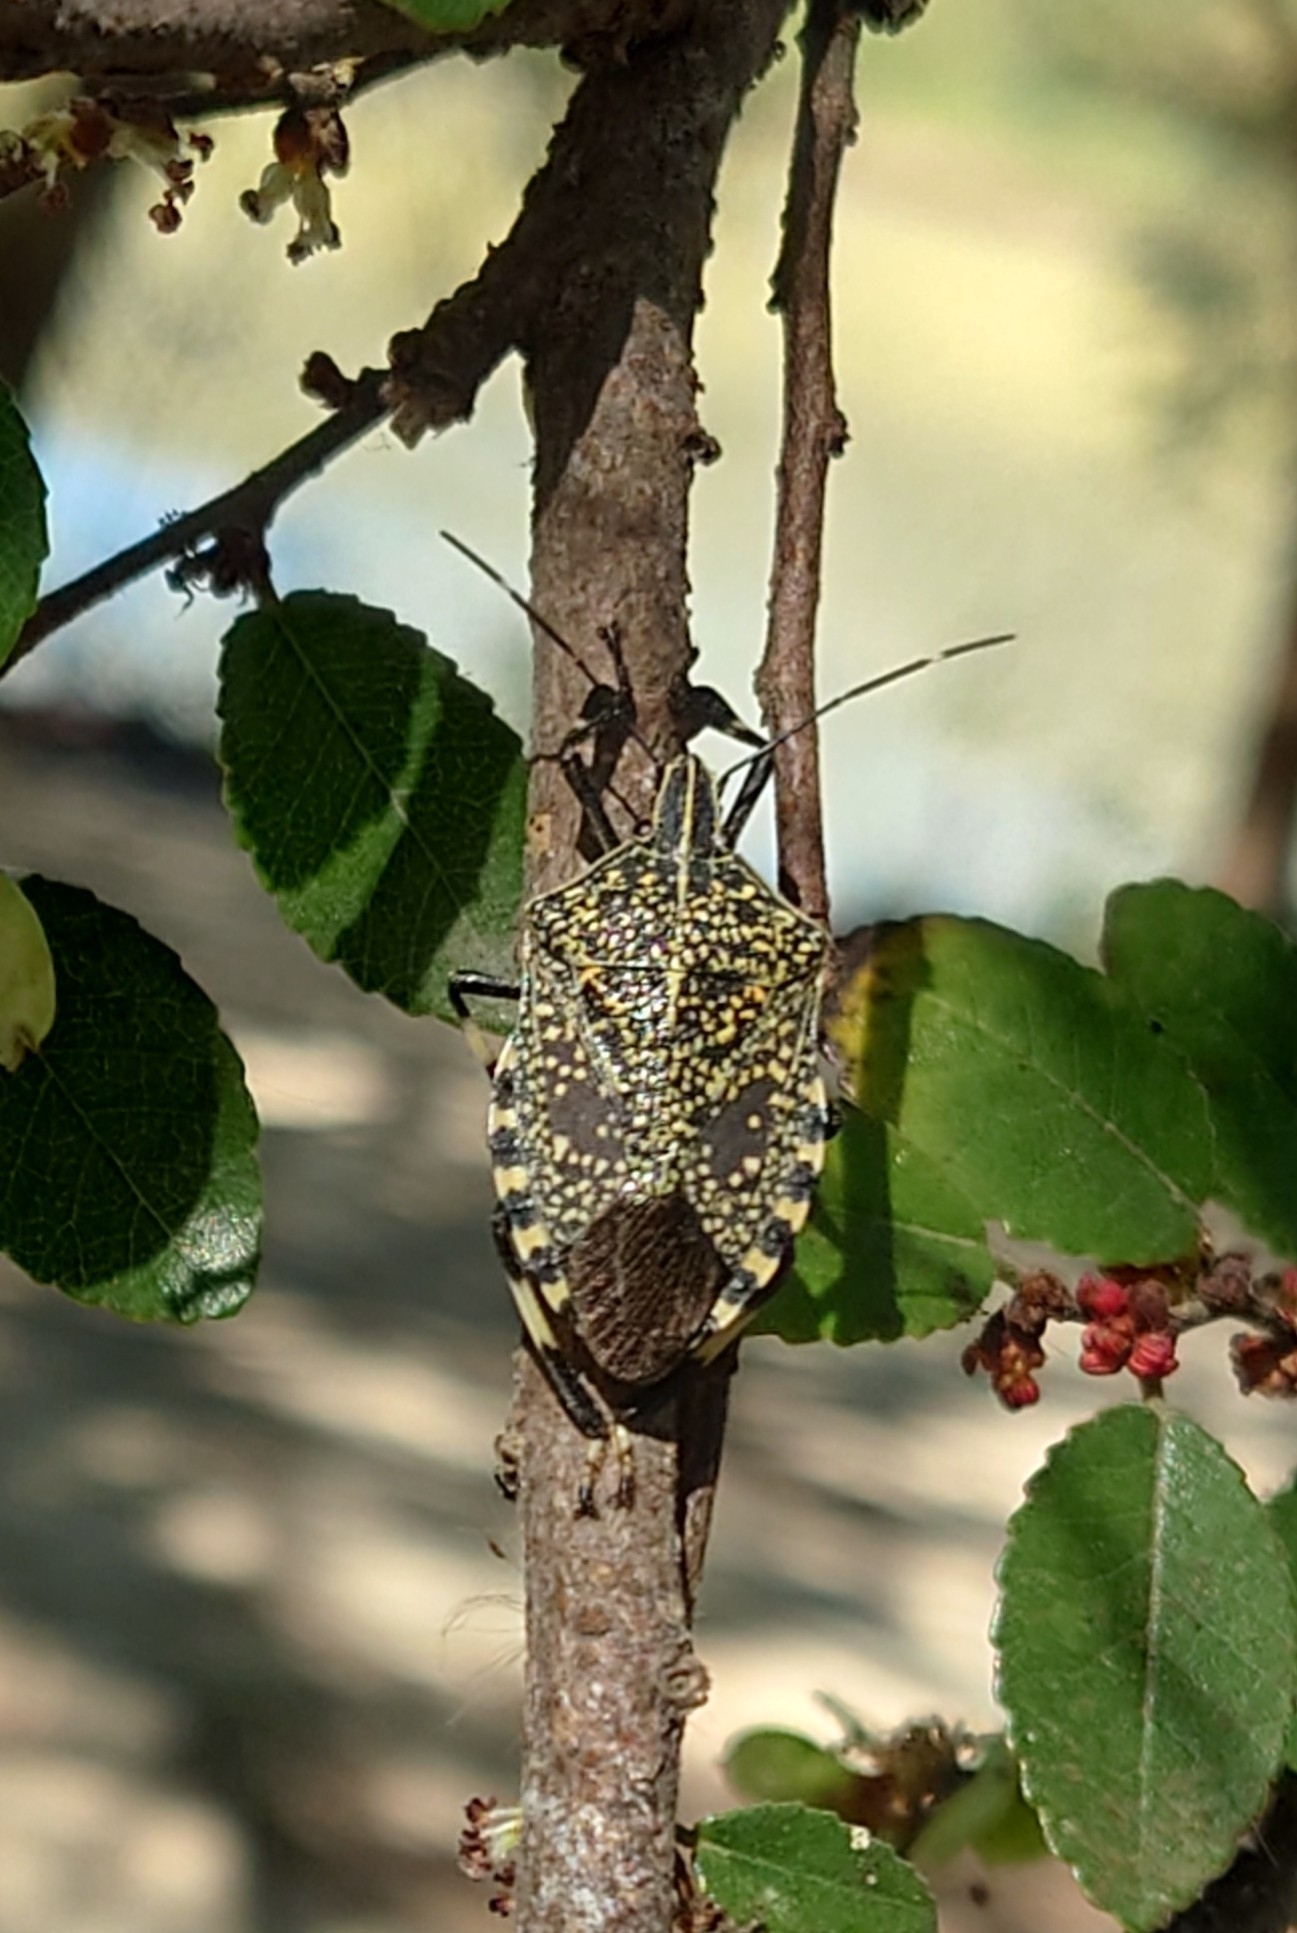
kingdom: Animalia
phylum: Arthropoda
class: Insecta
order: Hemiptera
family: Pentatomidae
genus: Erthesina
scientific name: Erthesina fullo
